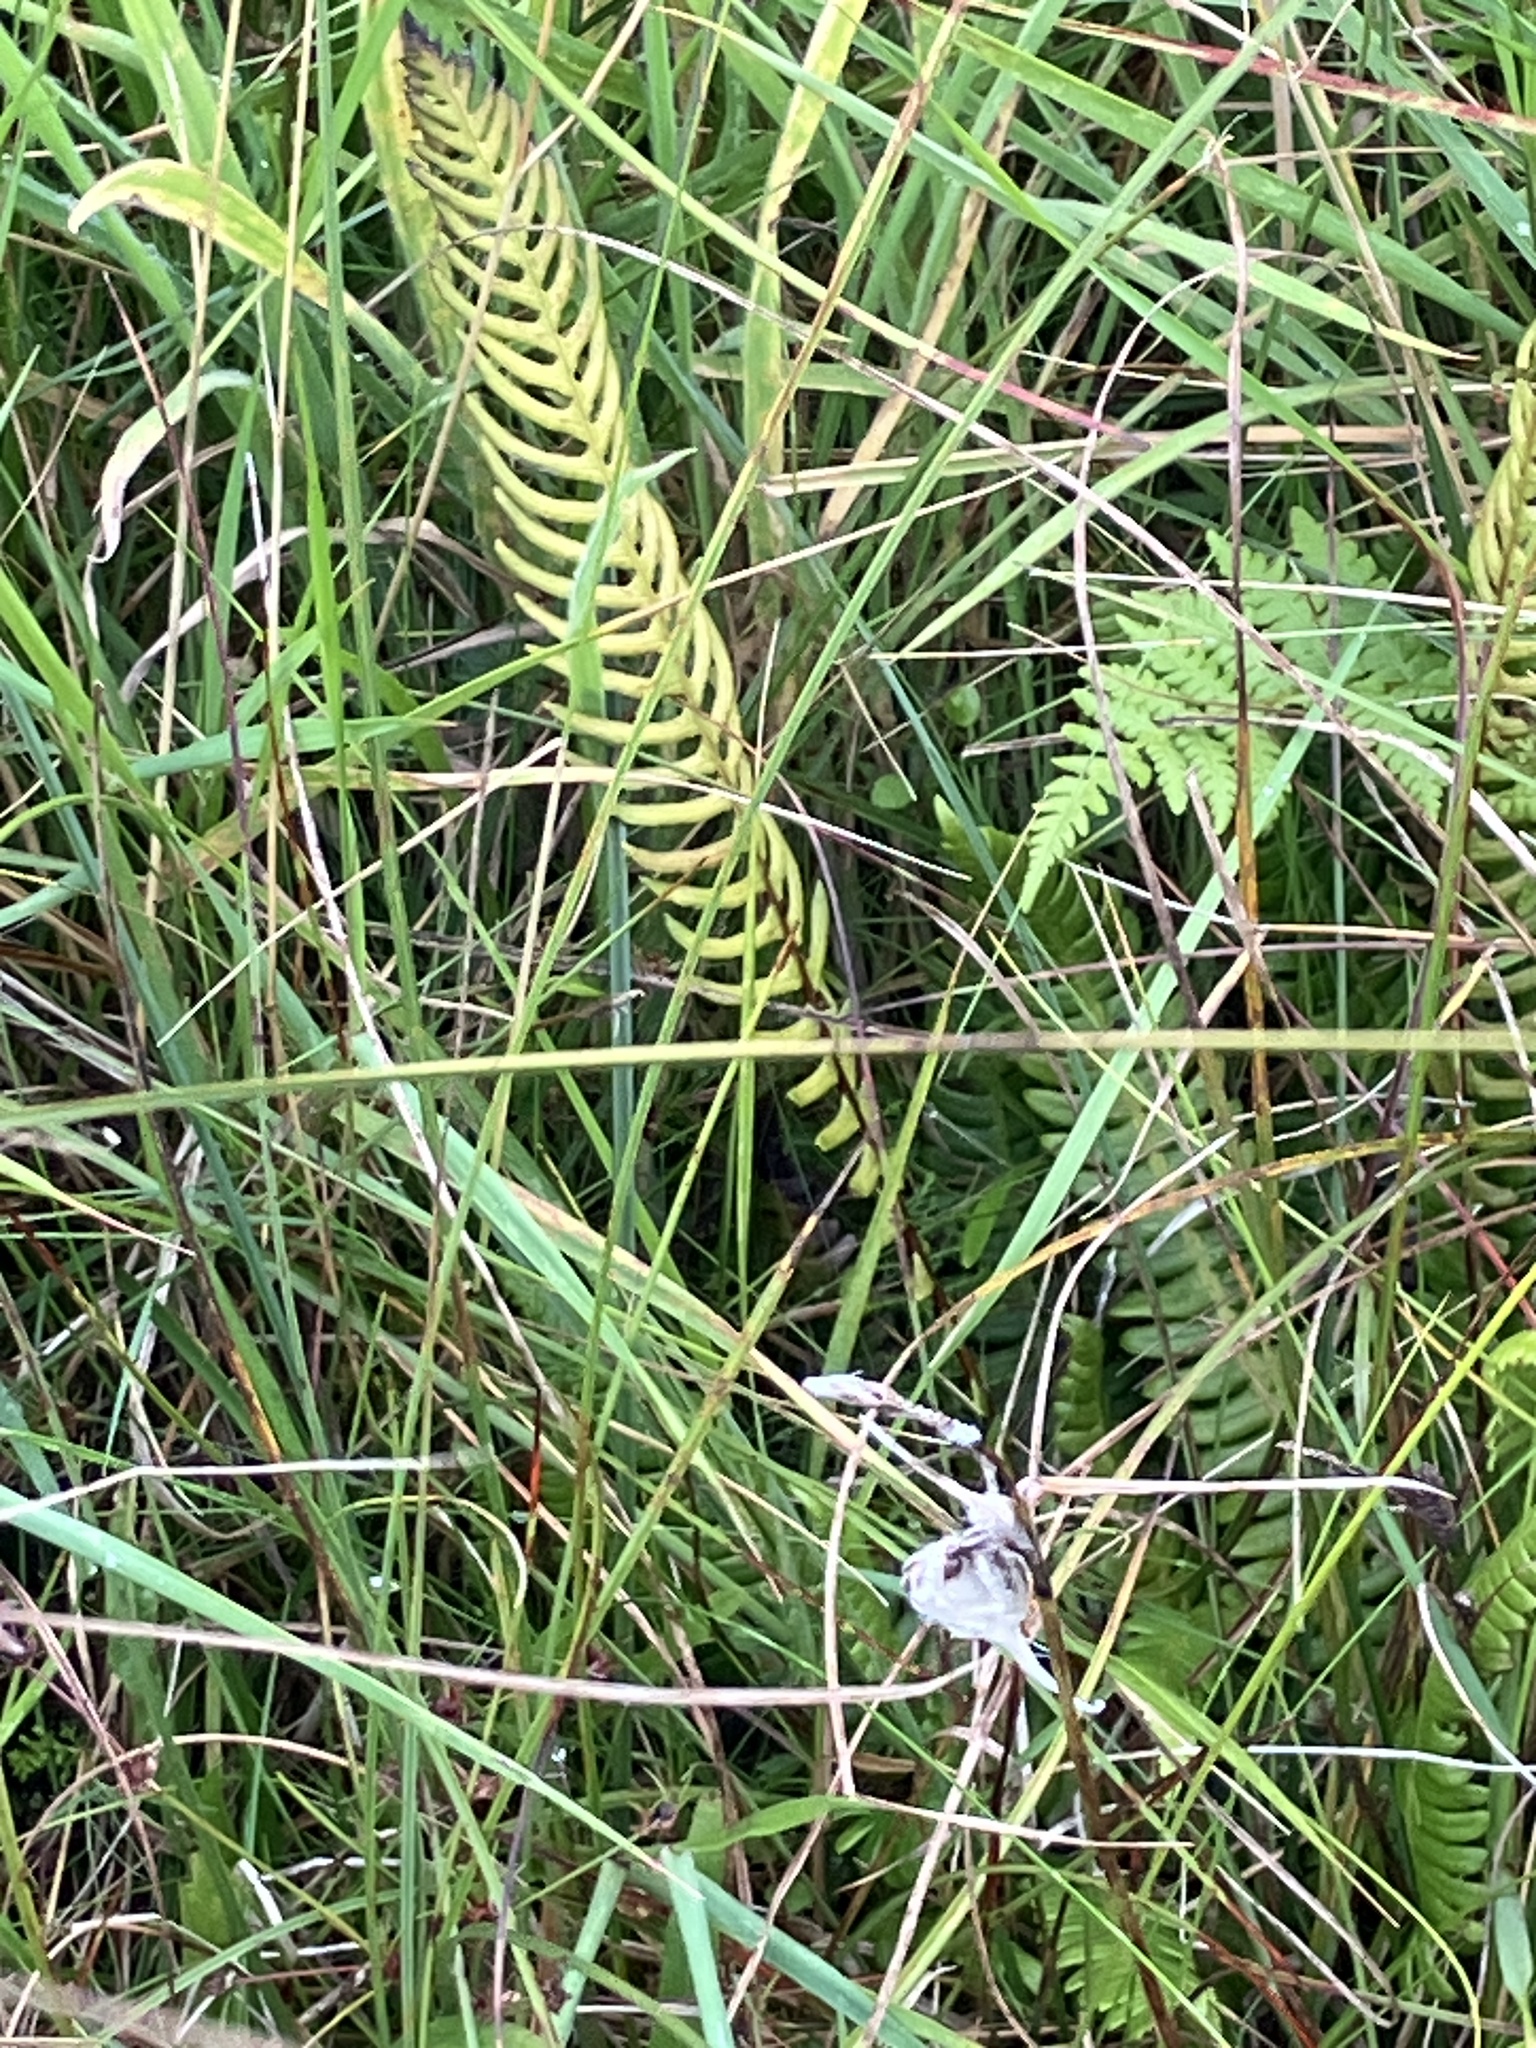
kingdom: Plantae
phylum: Tracheophyta
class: Polypodiopsida
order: Polypodiales
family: Blechnaceae
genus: Struthiopteris
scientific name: Struthiopteris spicant
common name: Deer fern
